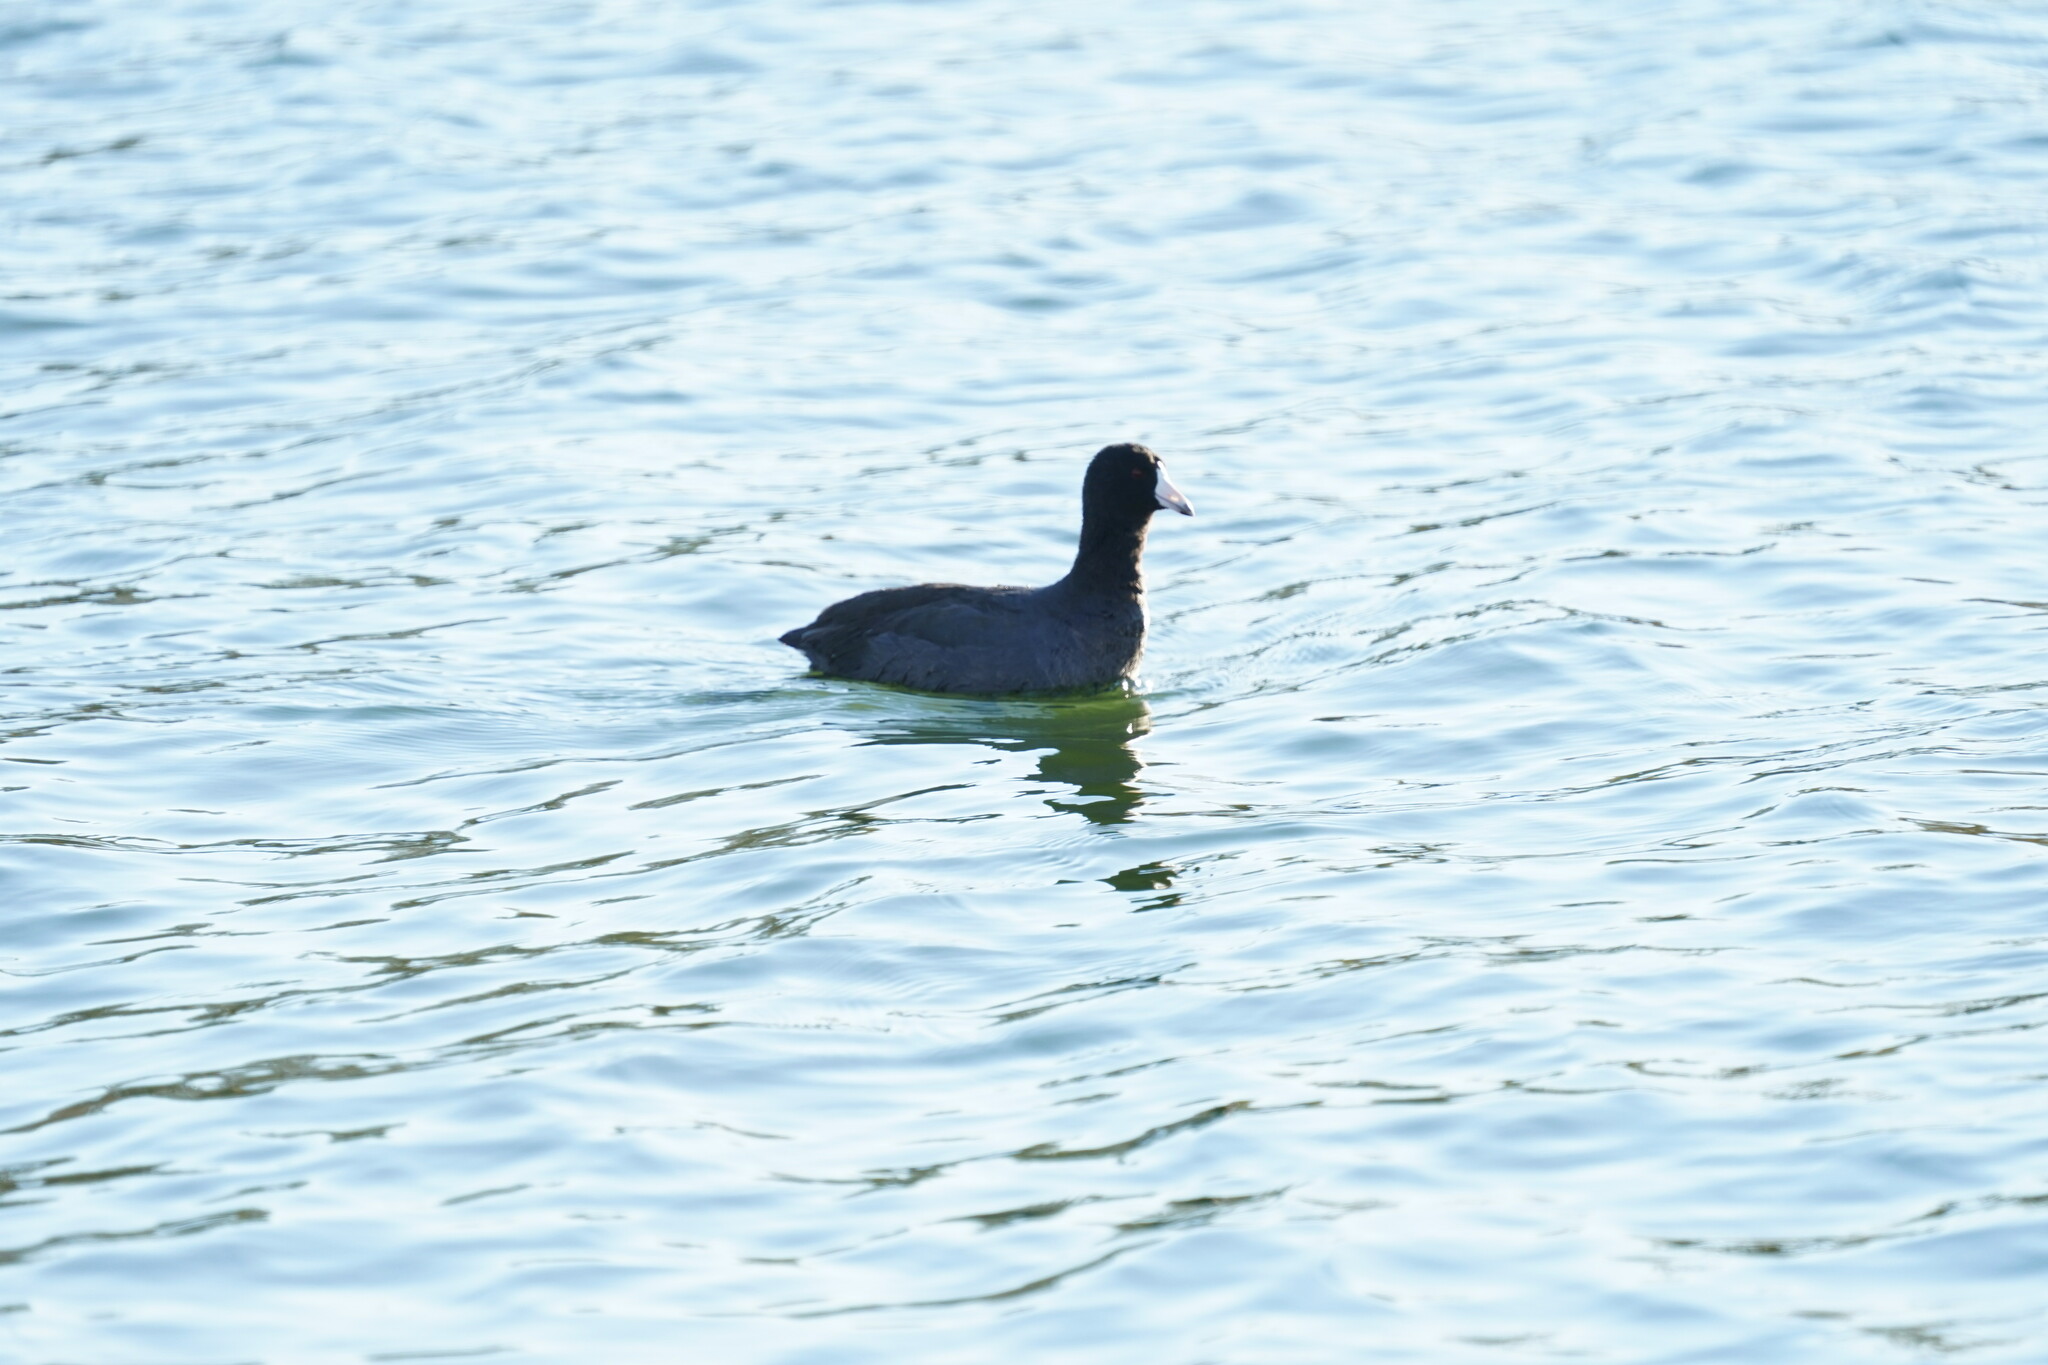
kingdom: Animalia
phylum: Chordata
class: Aves
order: Gruiformes
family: Rallidae
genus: Fulica
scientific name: Fulica americana
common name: American coot
